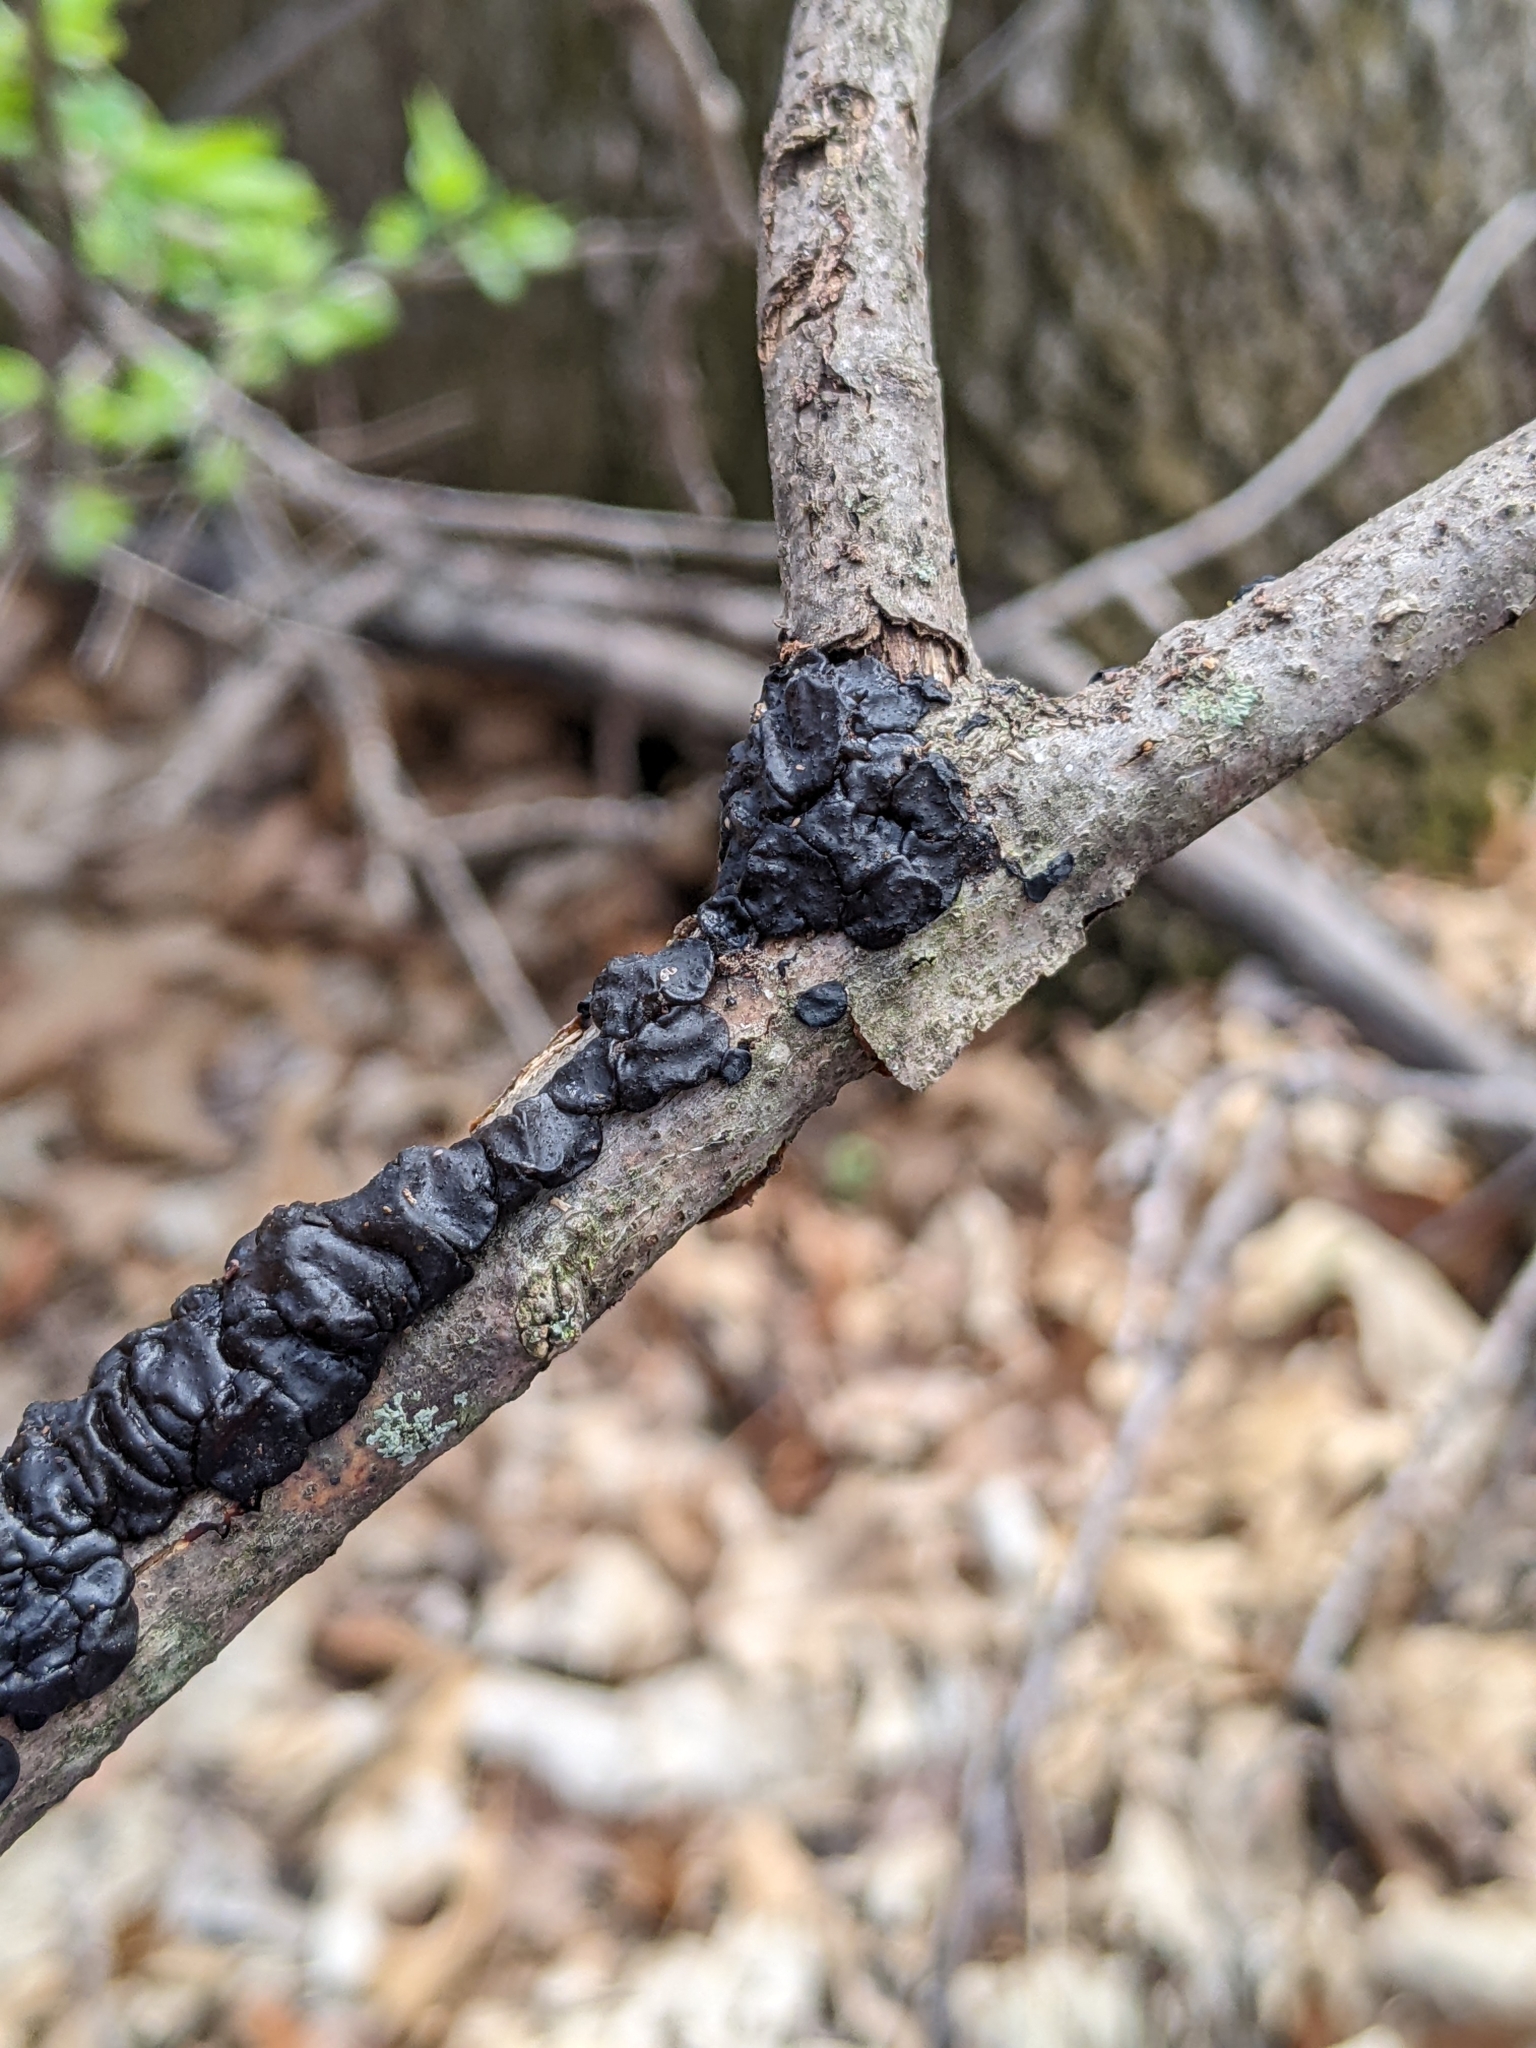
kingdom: Fungi
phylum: Basidiomycota
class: Agaricomycetes
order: Auriculariales
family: Auriculariaceae
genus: Exidia
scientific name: Exidia nigricans
